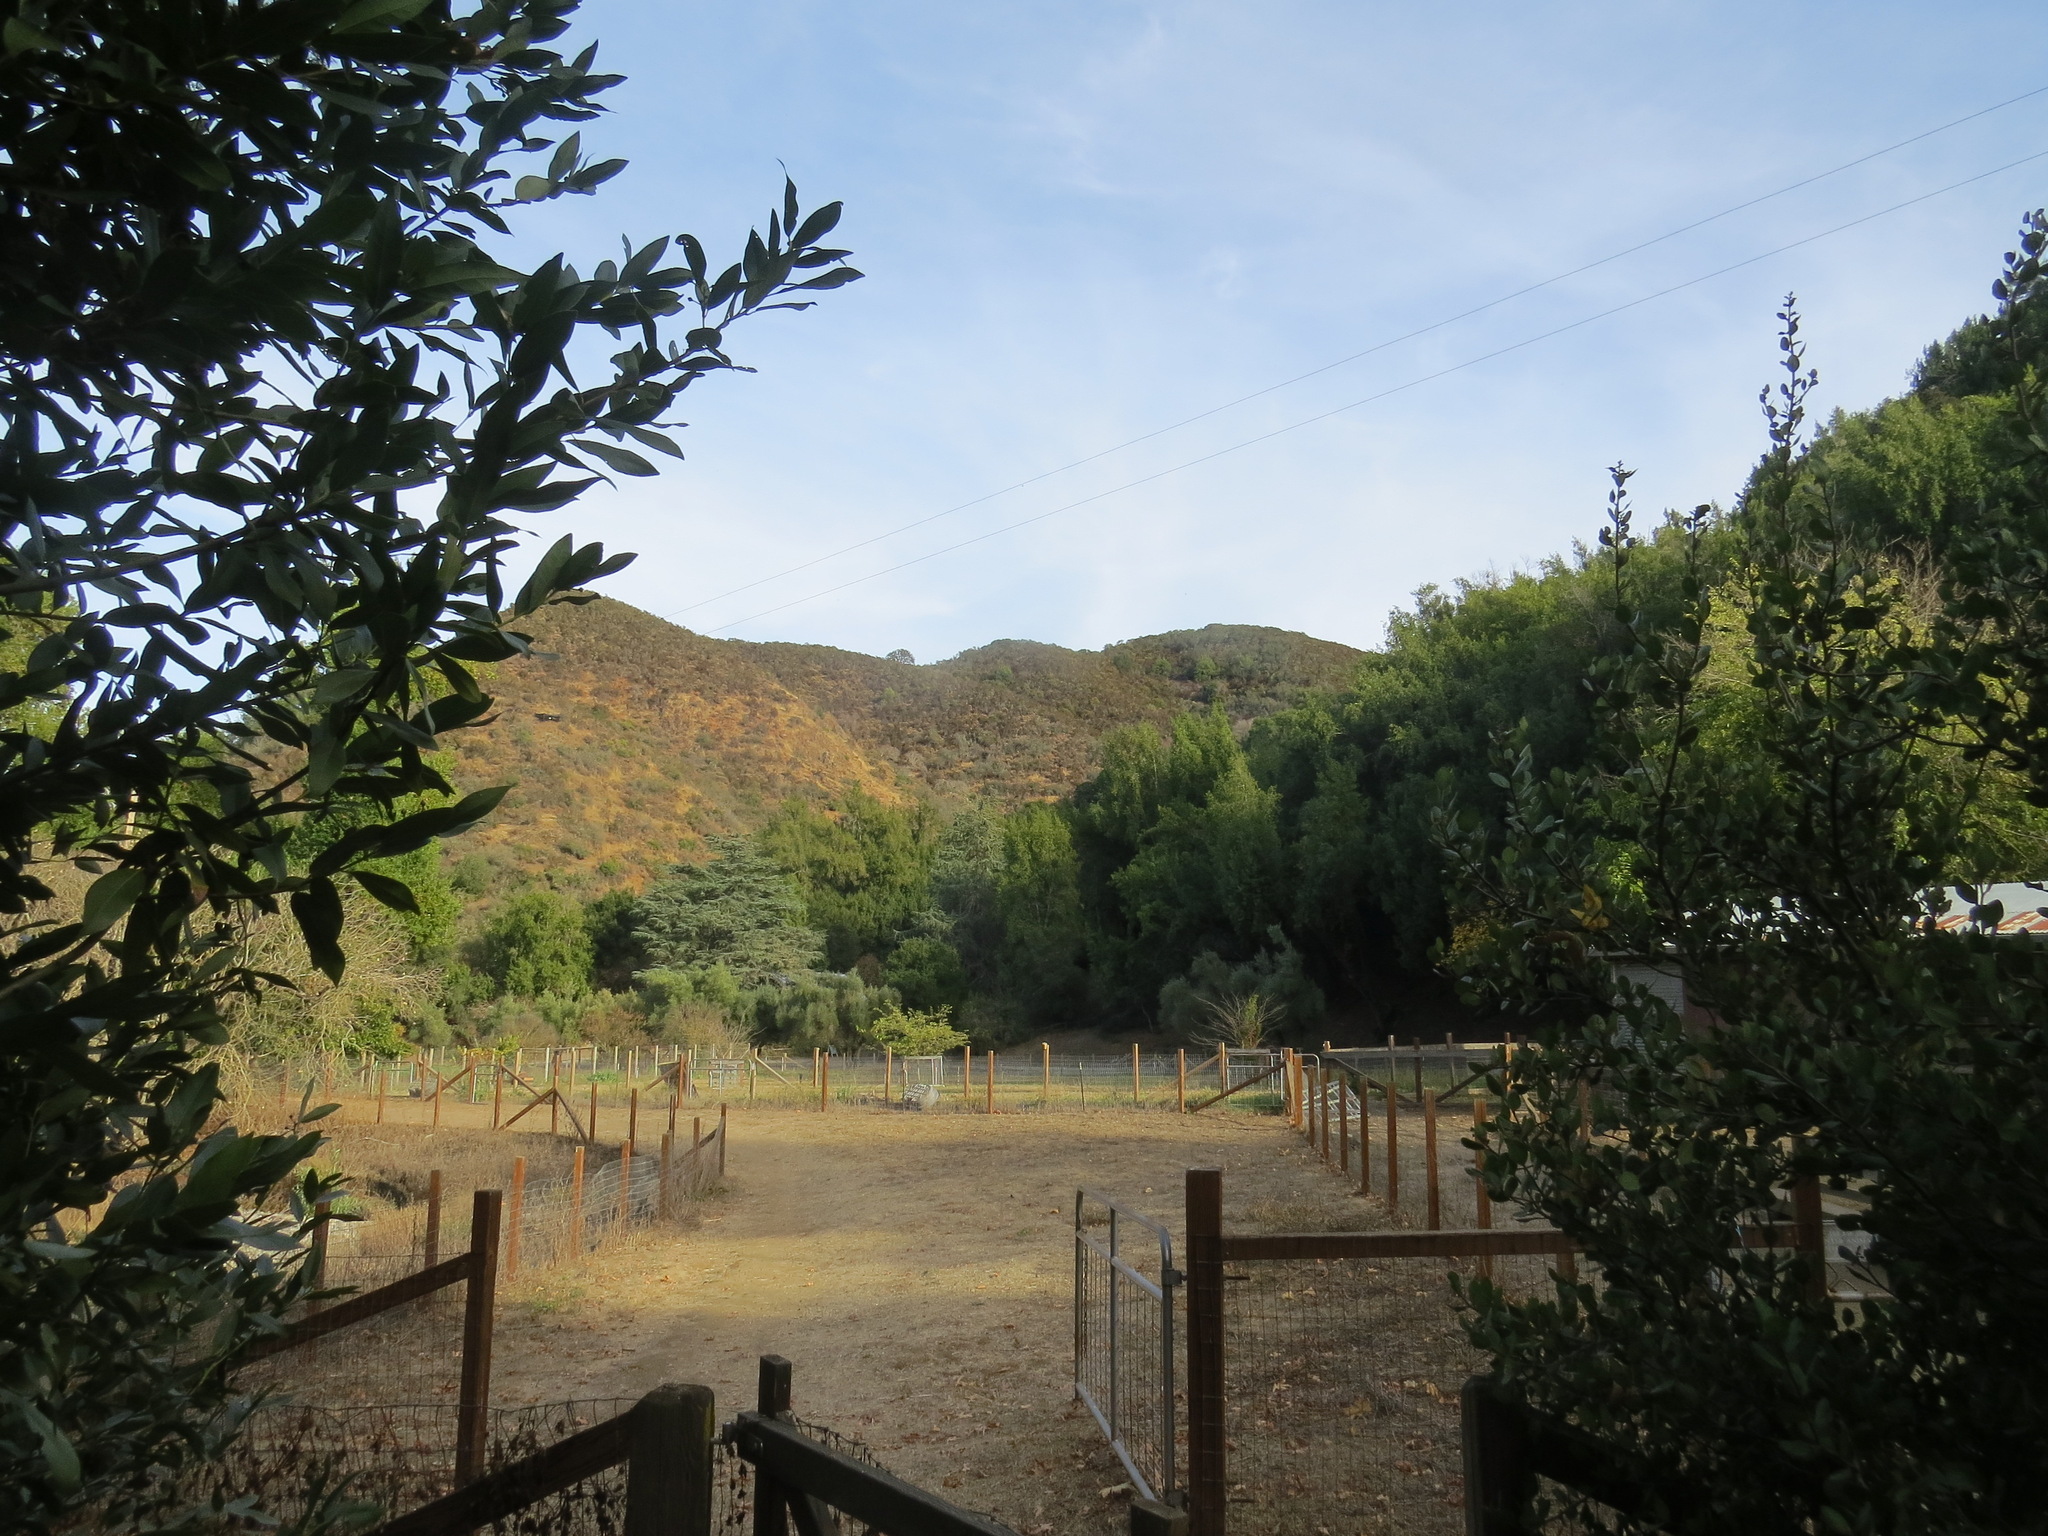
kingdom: Plantae
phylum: Tracheophyta
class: Magnoliopsida
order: Rosales
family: Rosaceae
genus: Adenostoma
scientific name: Adenostoma fasciculatum
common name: Chamise
